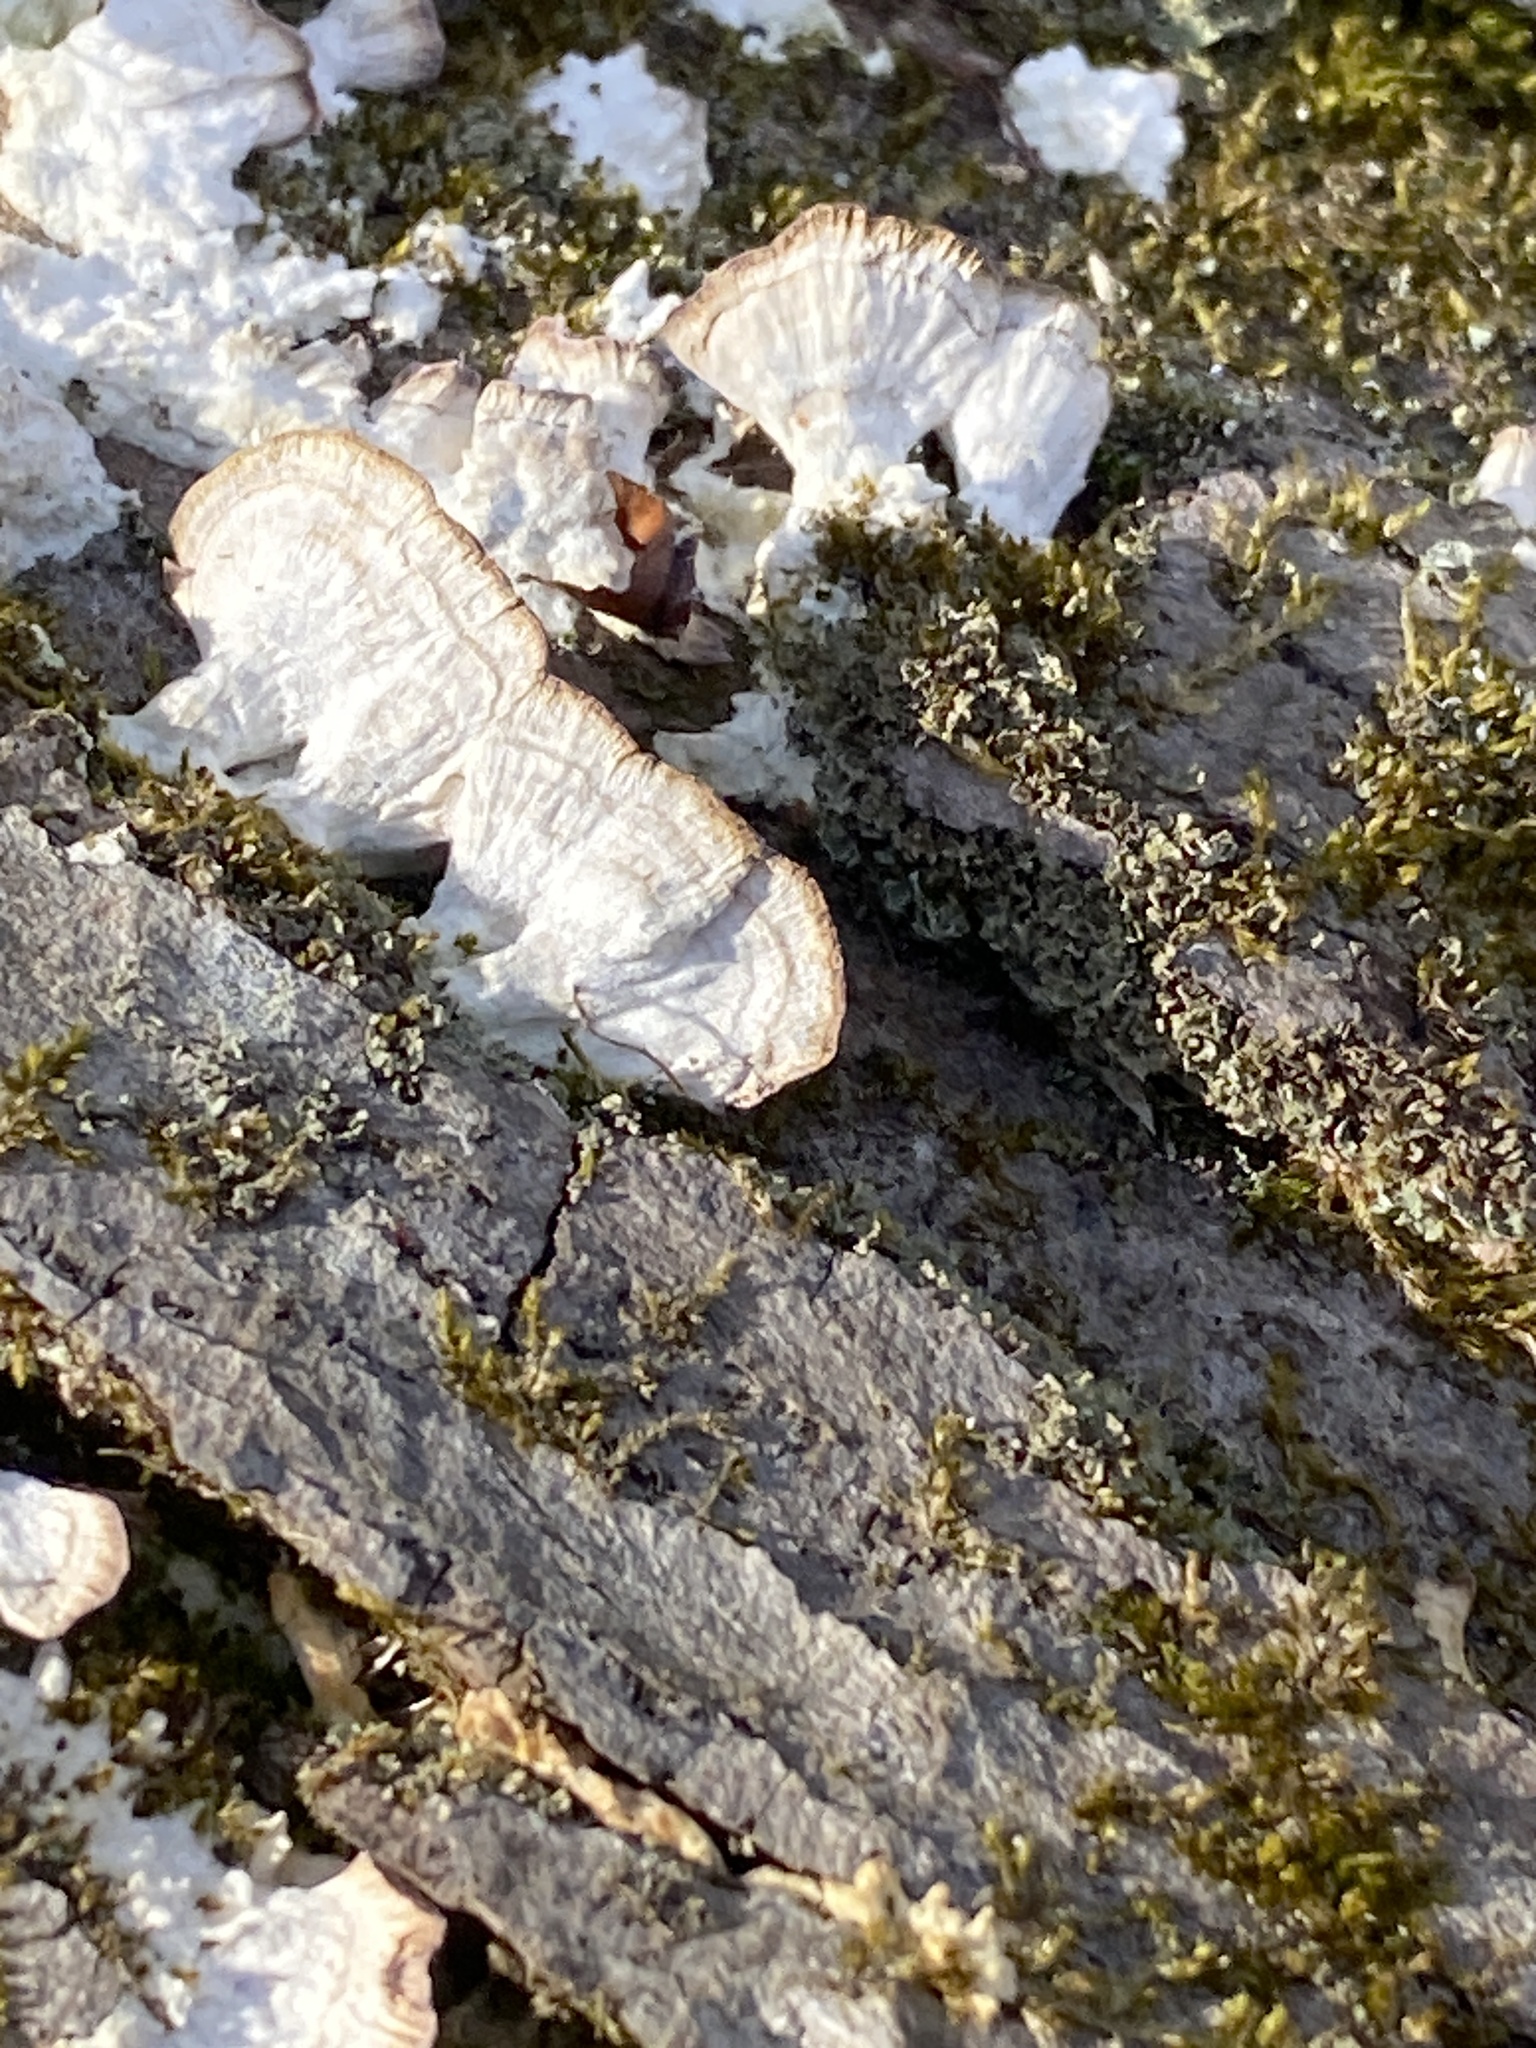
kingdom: Fungi
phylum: Basidiomycota
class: Agaricomycetes
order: Hymenochaetales
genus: Trichaptum
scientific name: Trichaptum biforme
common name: Violet-toothed polypore
